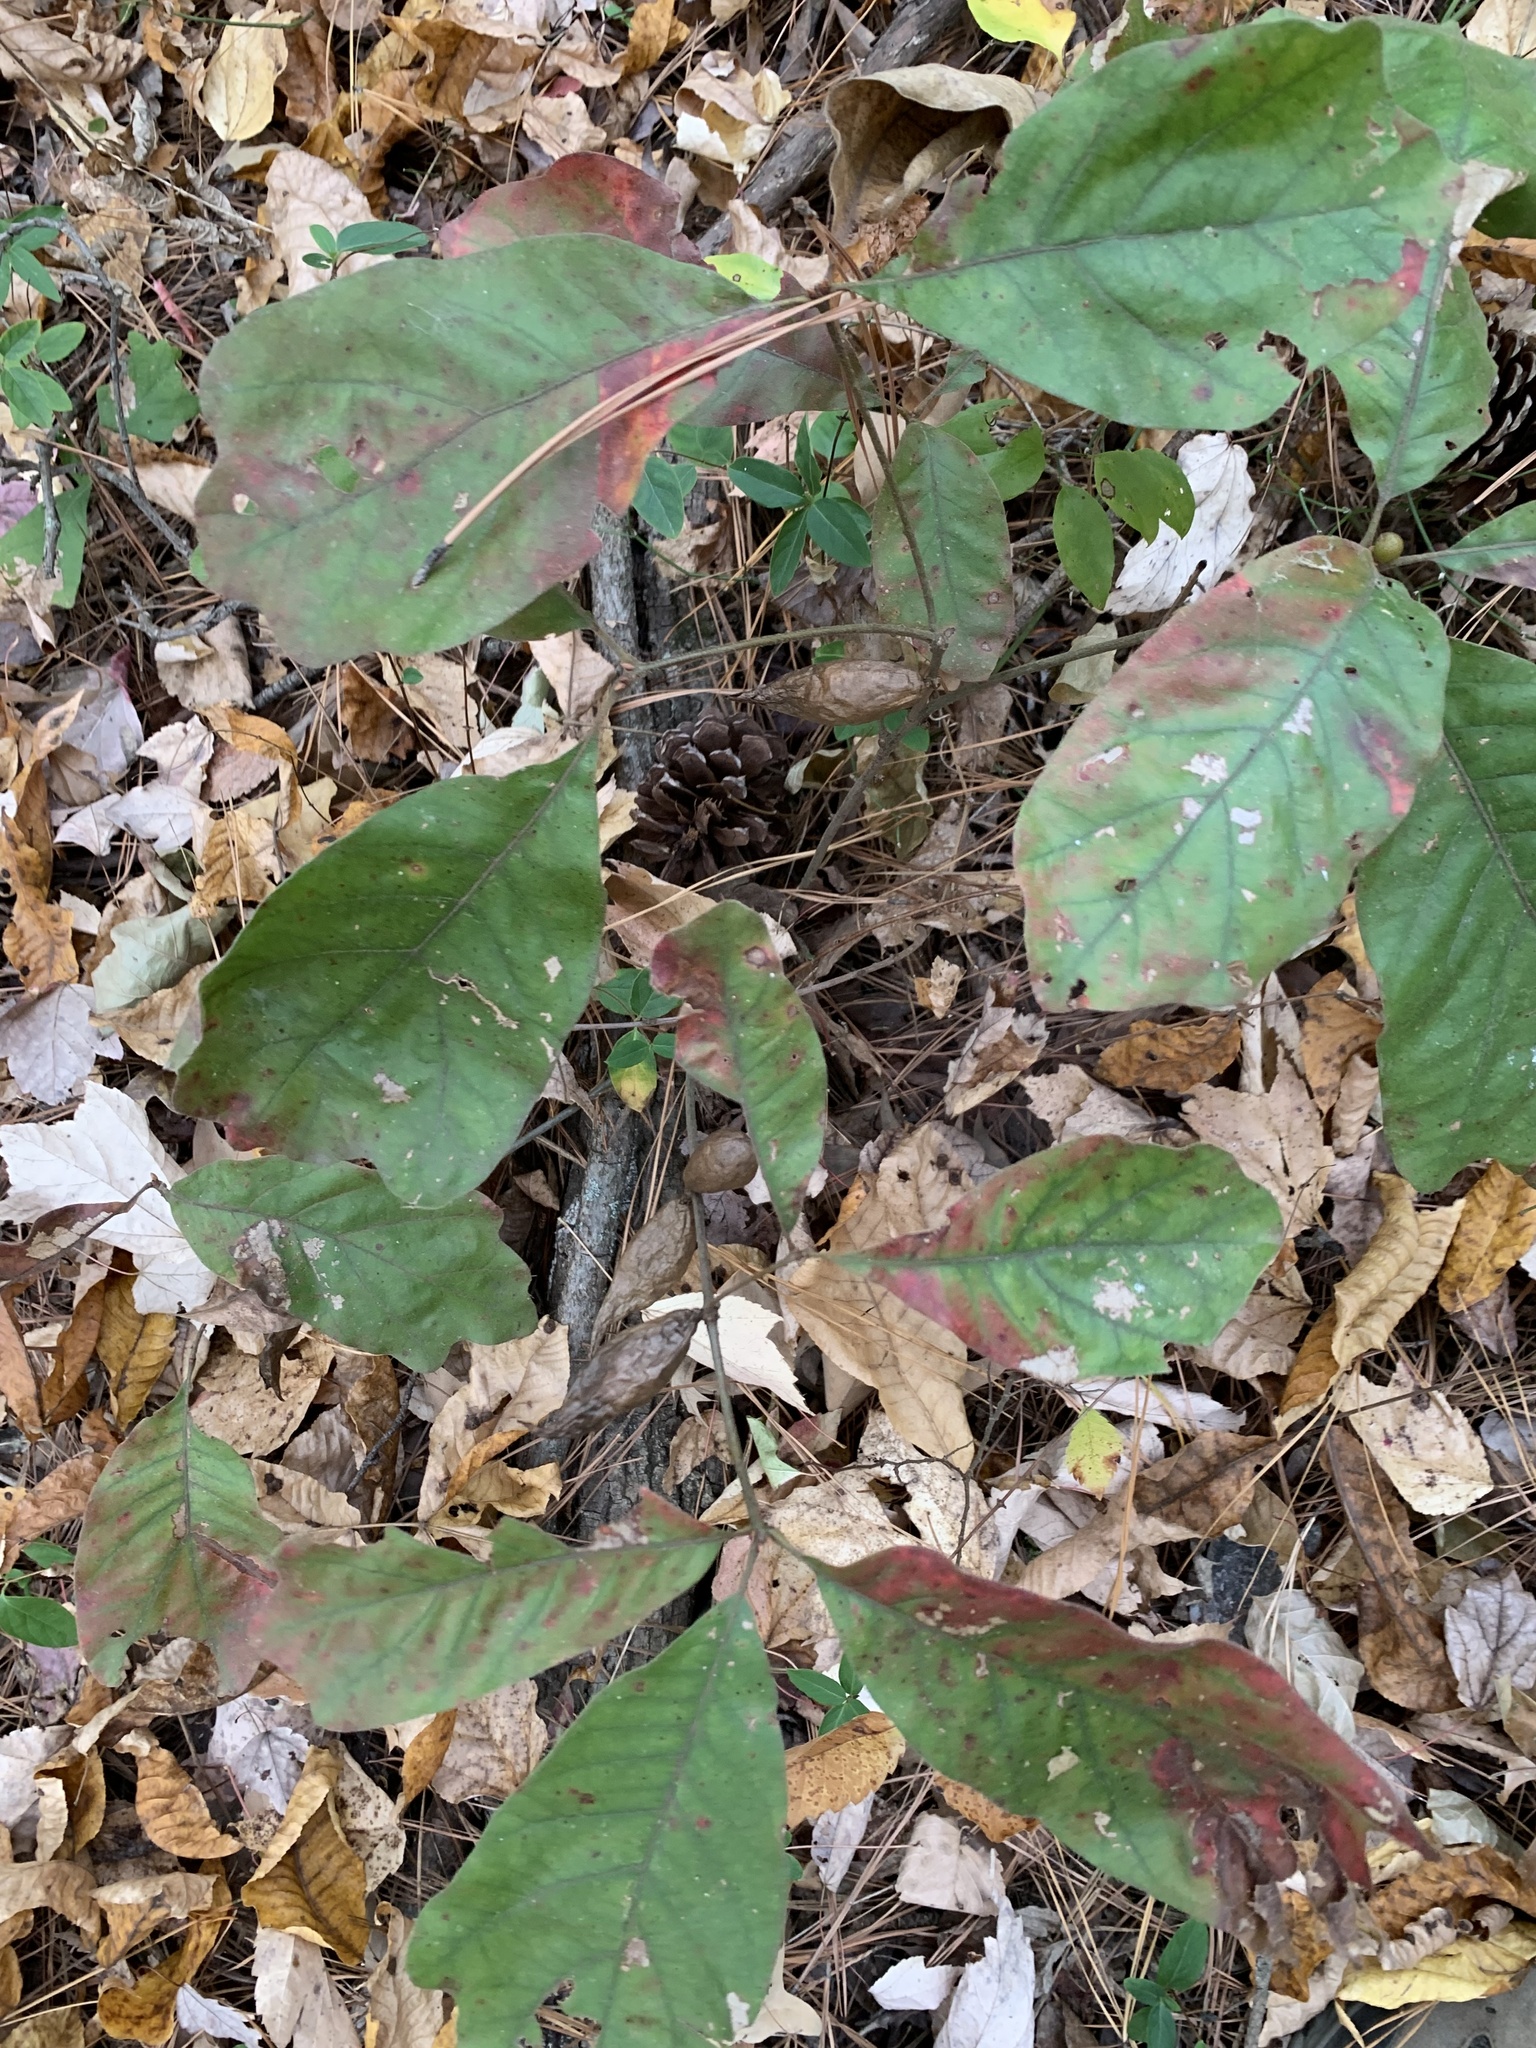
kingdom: Animalia
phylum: Arthropoda
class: Insecta
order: Hymenoptera
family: Cynipidae
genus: Amphibolips
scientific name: Amphibolips
